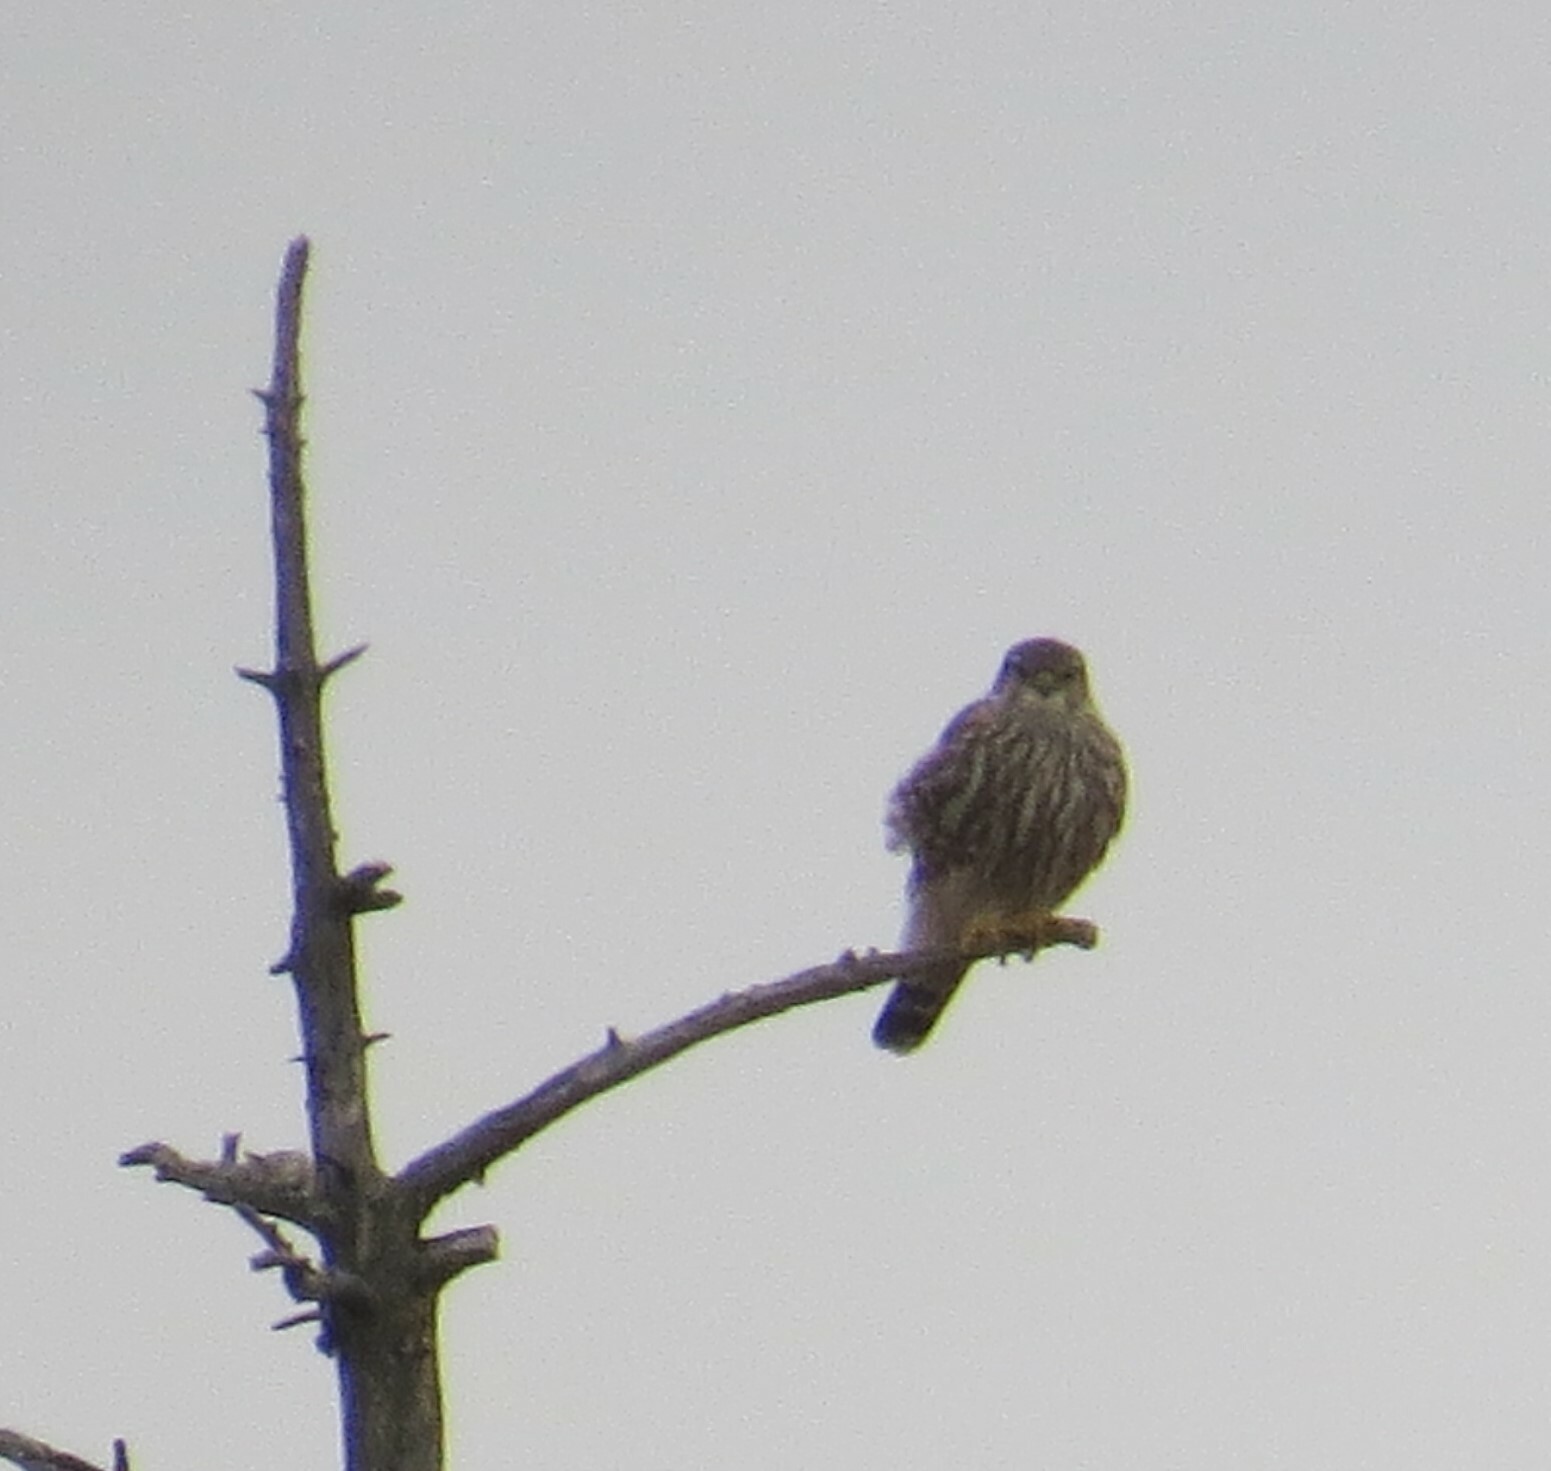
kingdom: Animalia
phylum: Chordata
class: Aves
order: Falconiformes
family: Falconidae
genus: Falco
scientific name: Falco columbarius
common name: Merlin
